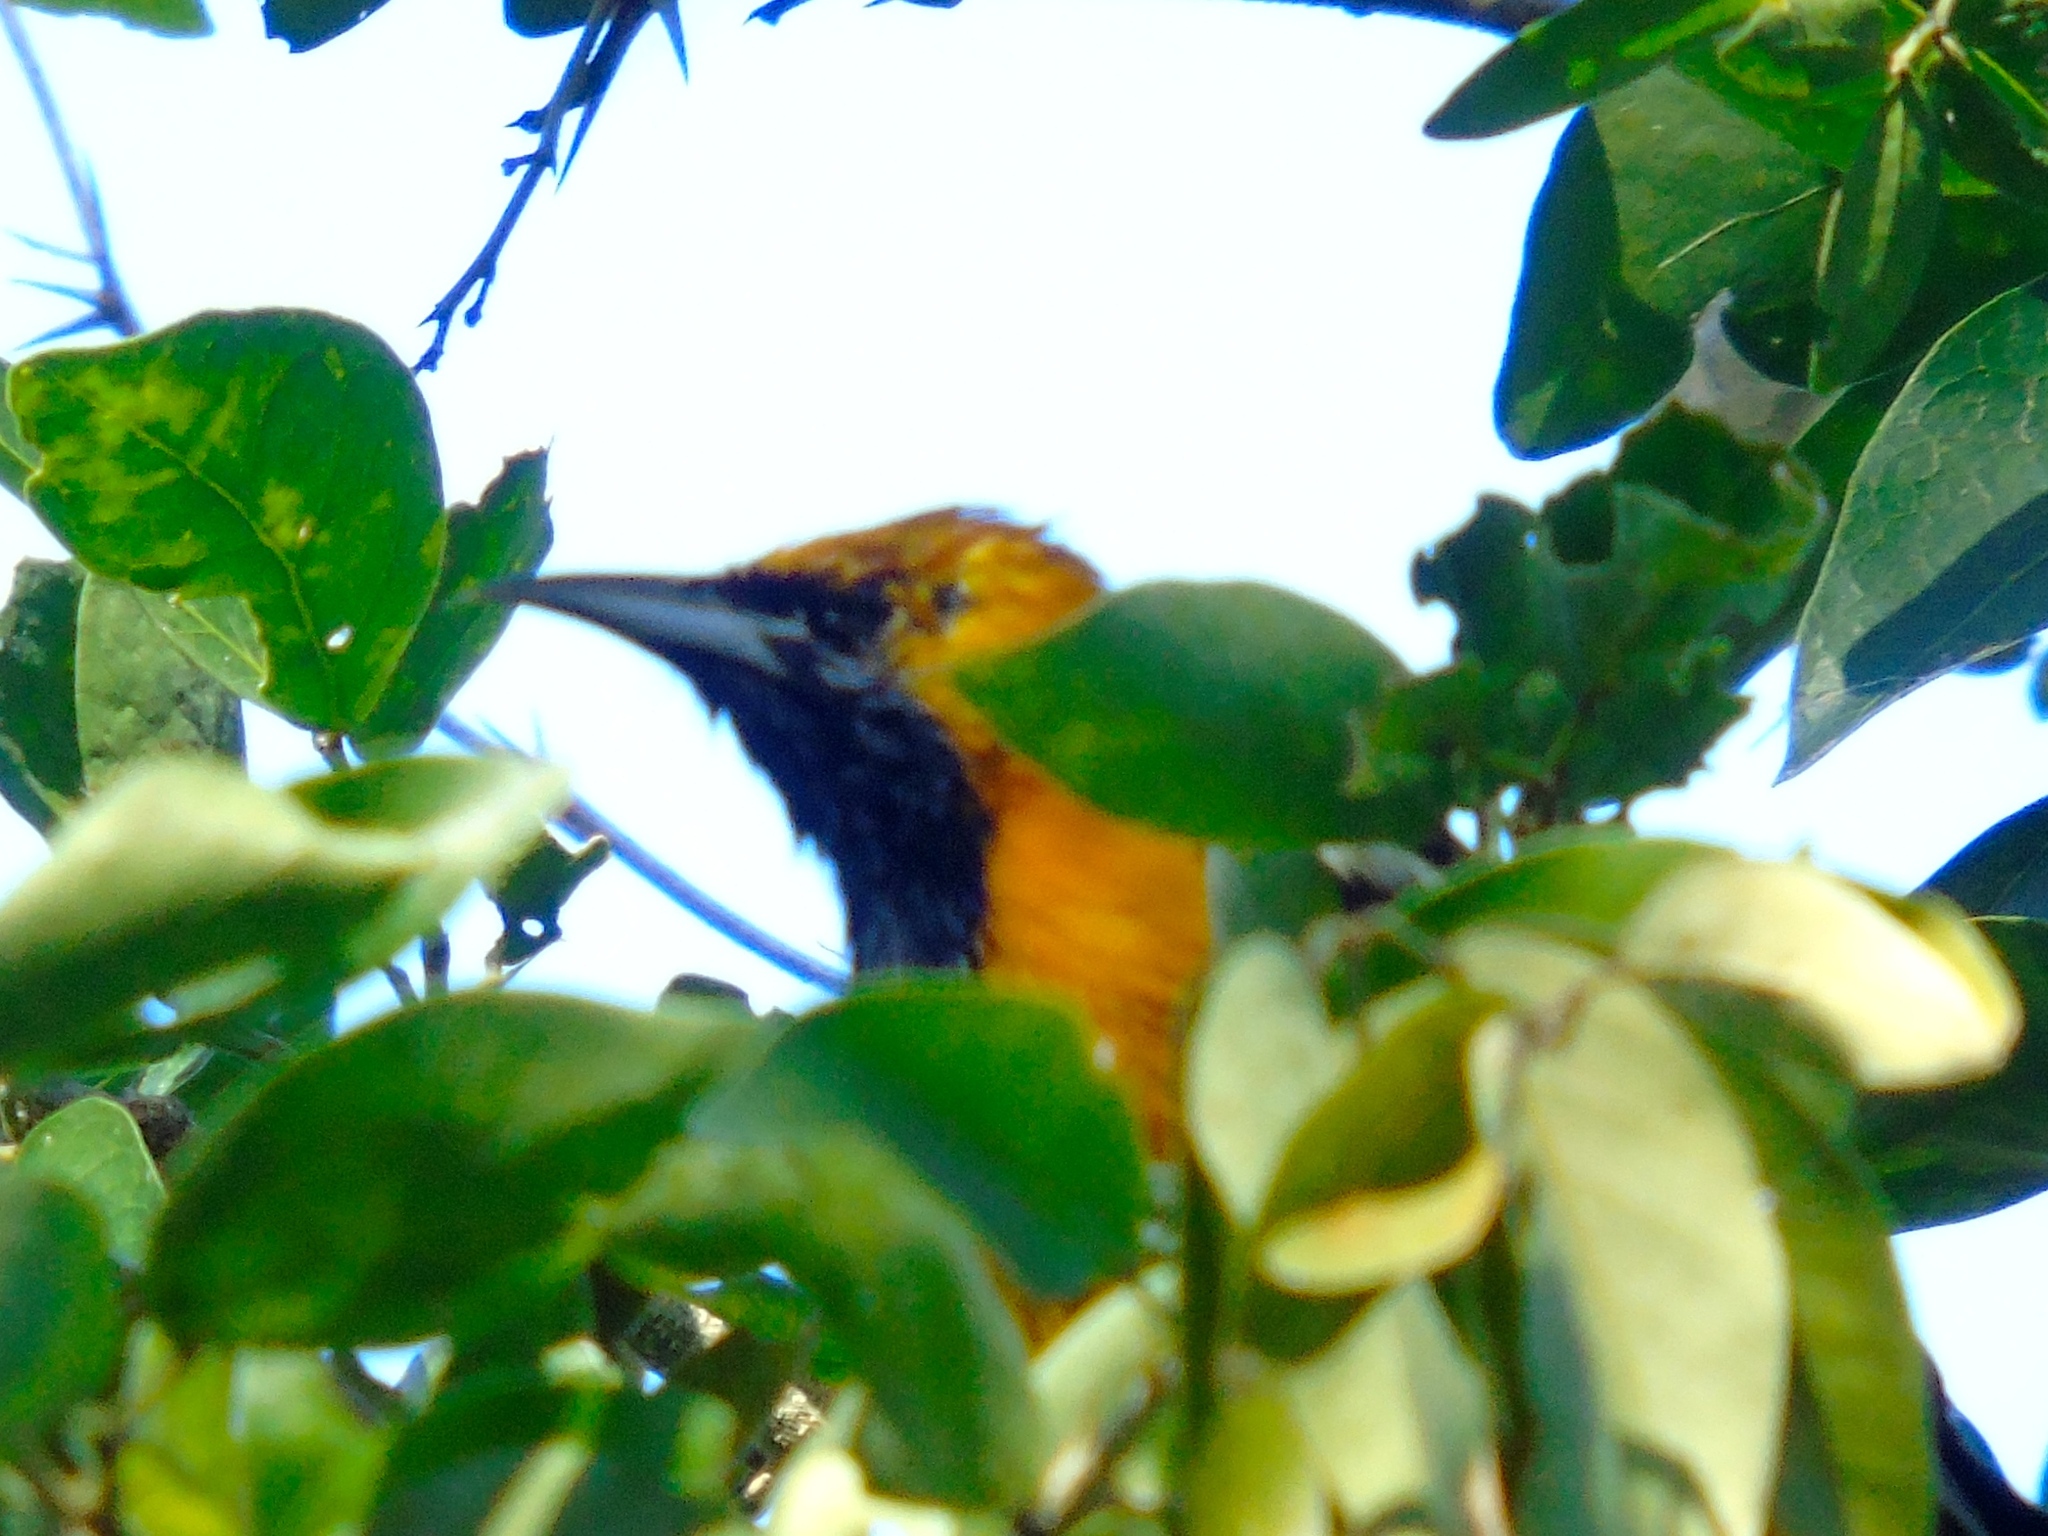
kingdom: Animalia
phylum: Chordata
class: Aves
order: Passeriformes
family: Icteridae
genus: Icterus
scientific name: Icterus
